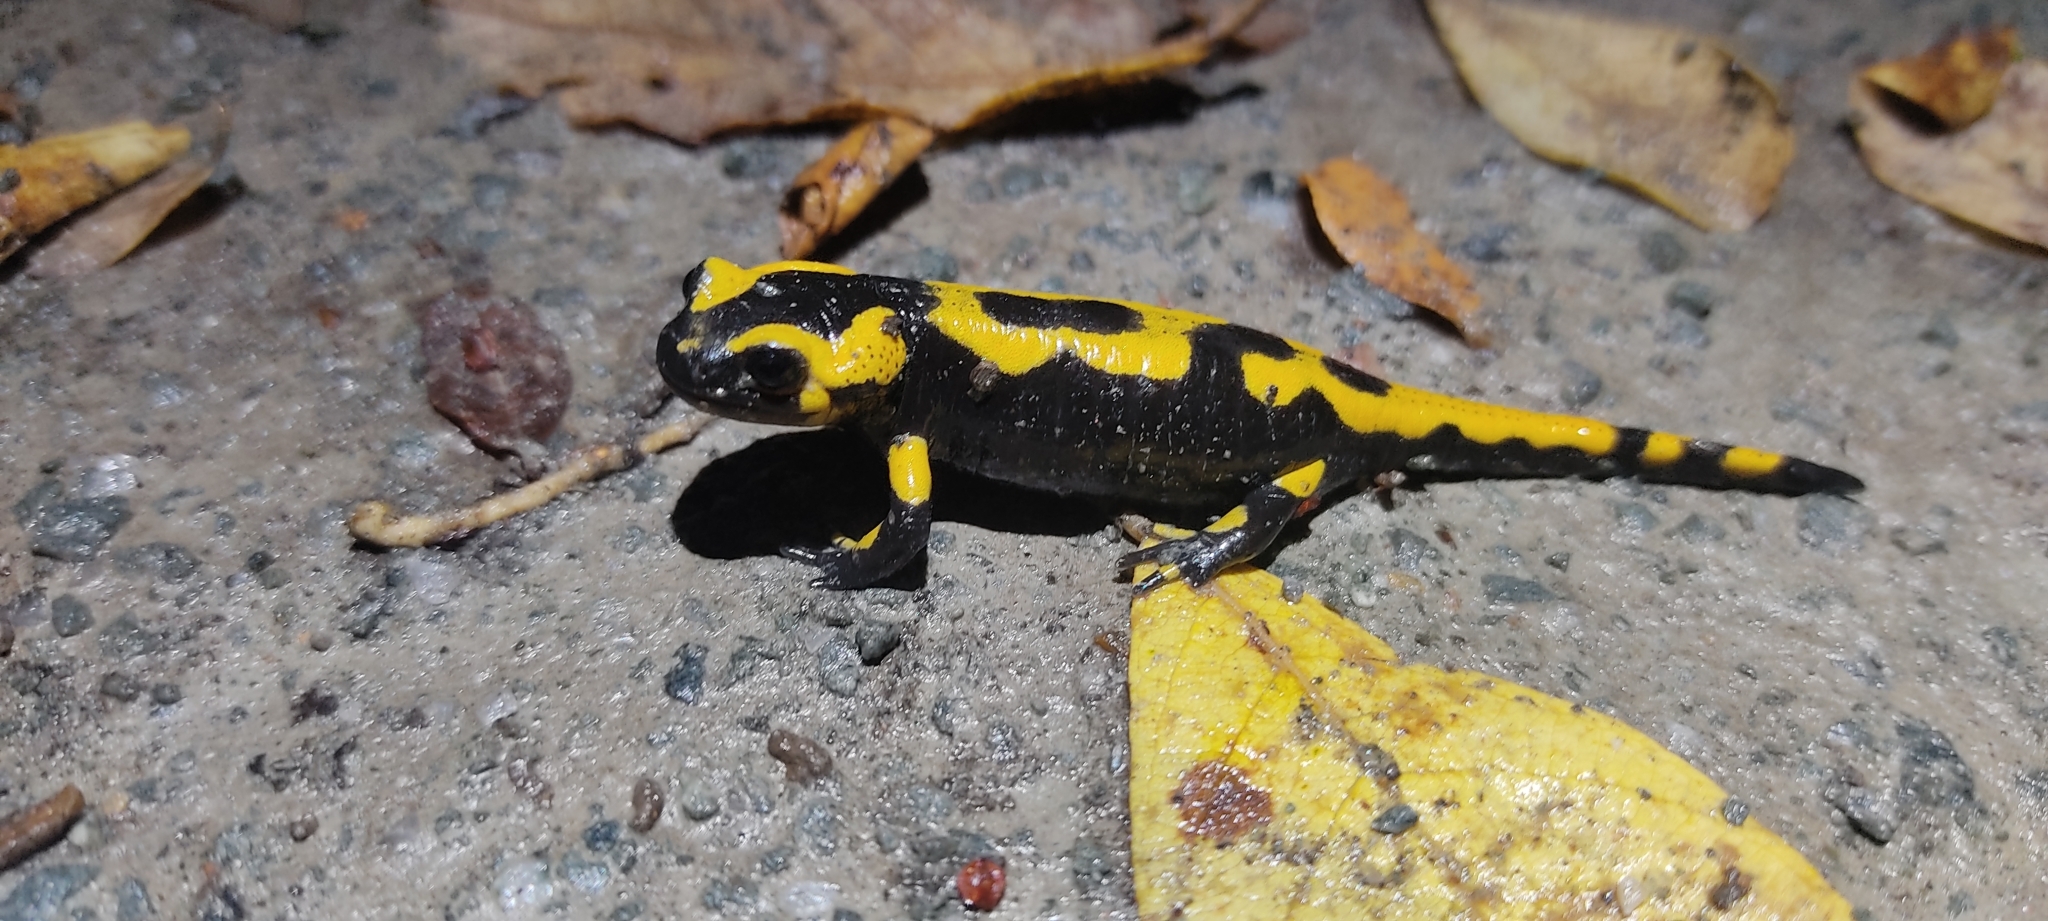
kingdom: Animalia
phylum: Chordata
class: Amphibia
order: Caudata
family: Salamandridae
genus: Salamandra
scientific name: Salamandra salamandra
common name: Fire salamander
